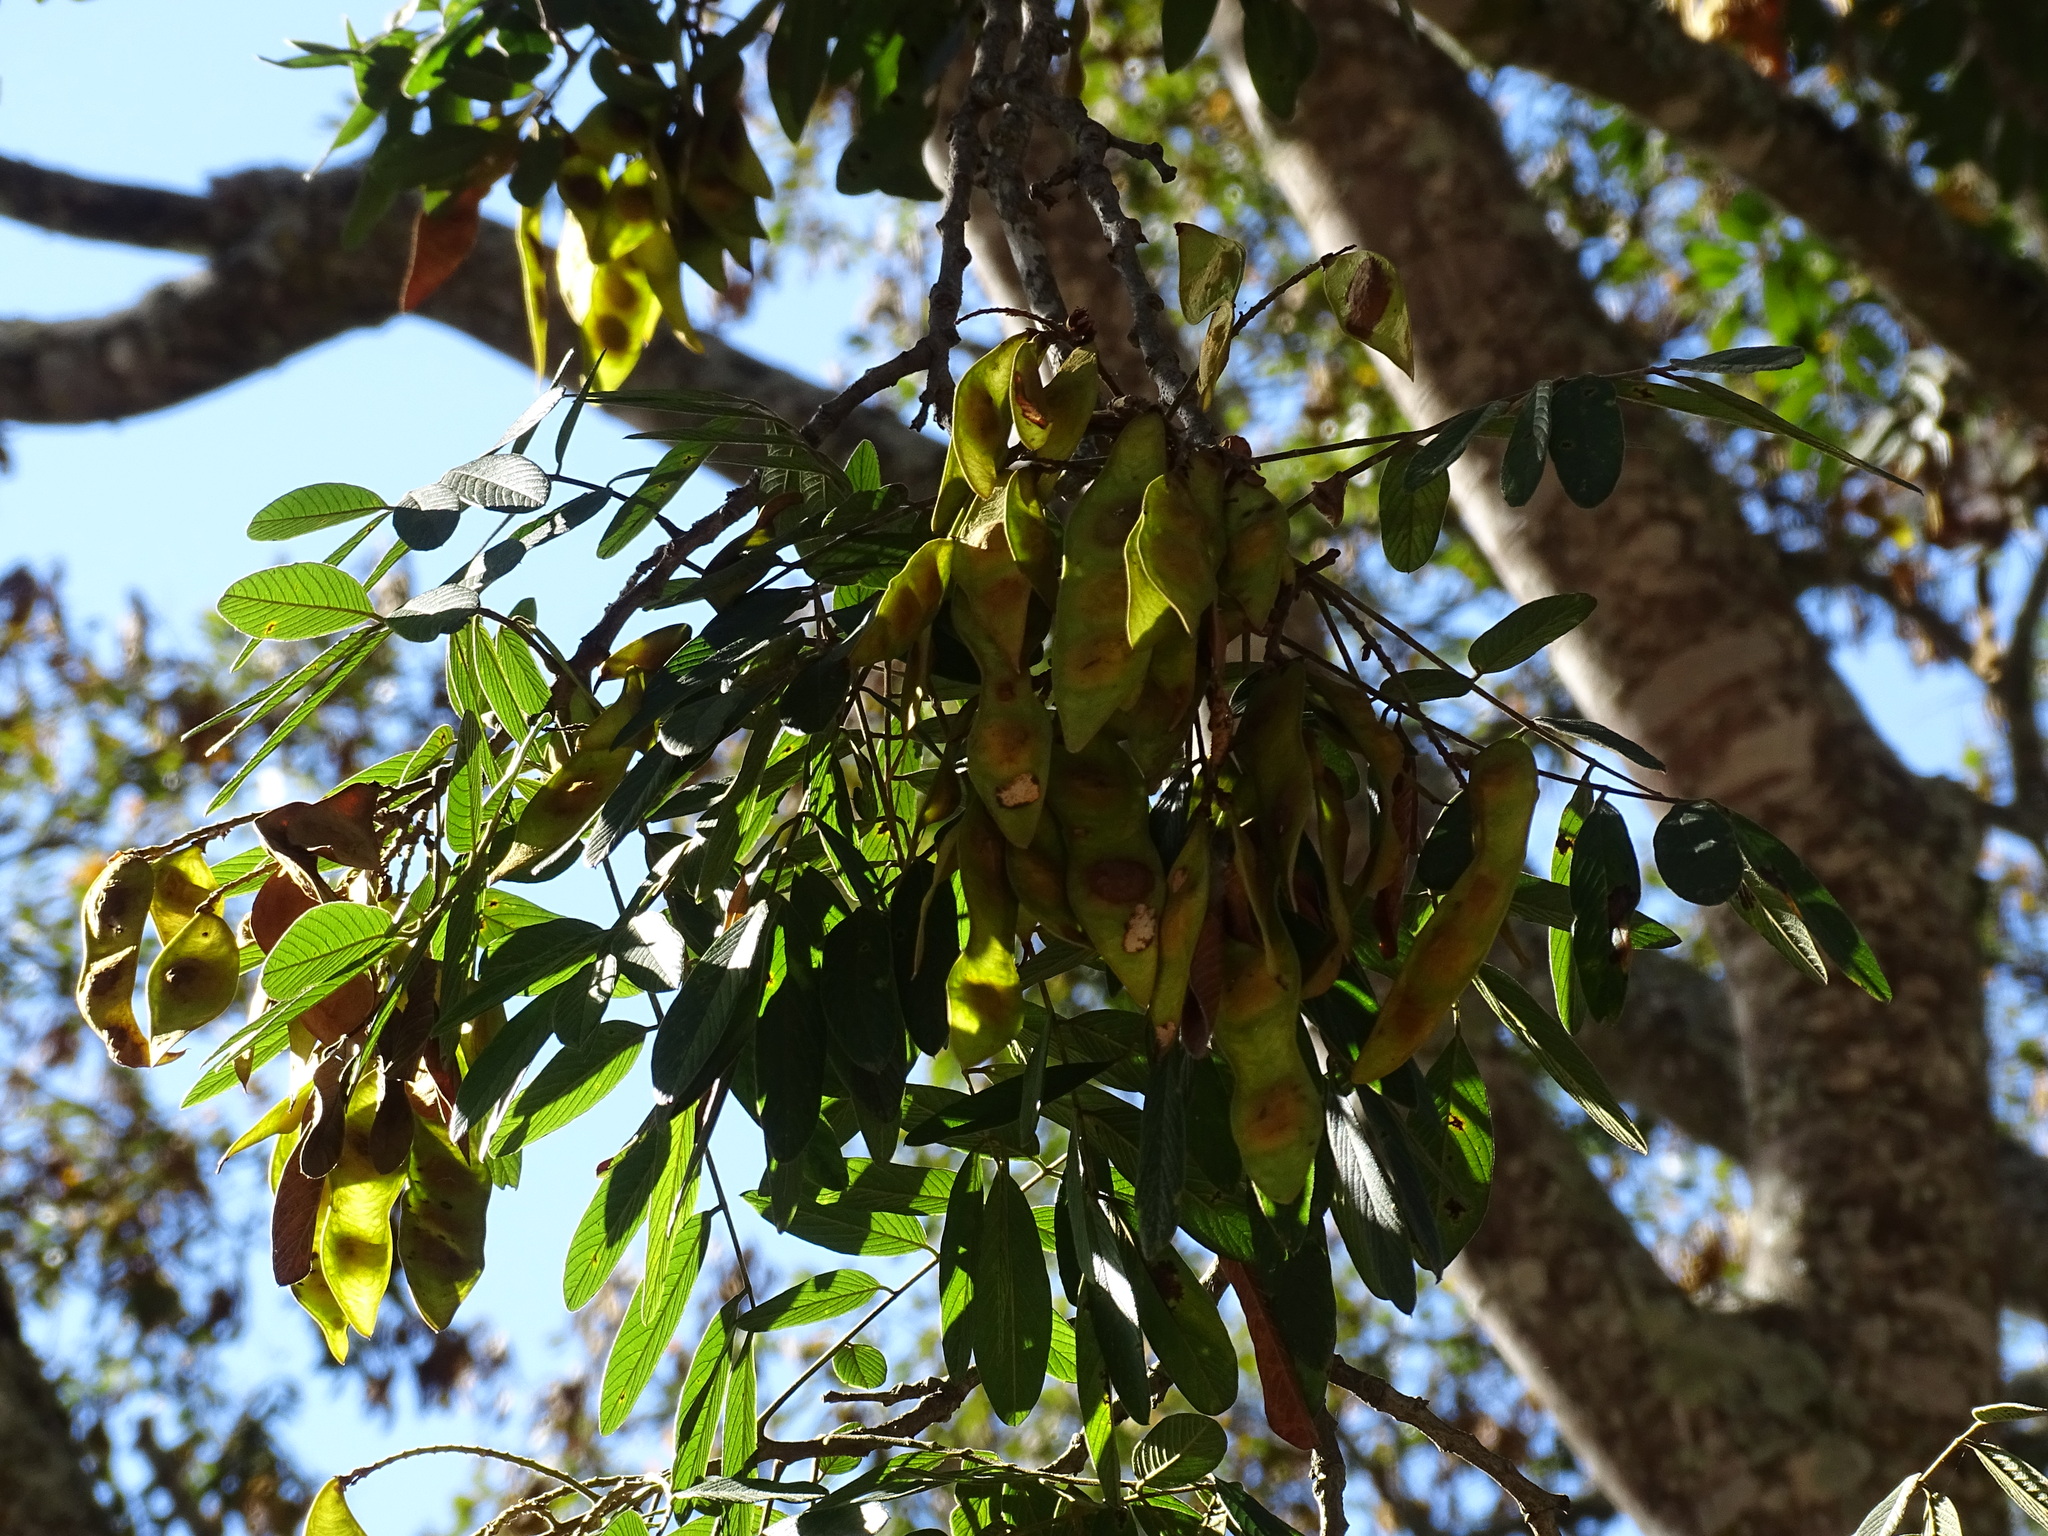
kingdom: Plantae
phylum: Tracheophyta
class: Magnoliopsida
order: Fabales
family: Fabaceae
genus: Lonchocarpus
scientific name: Lonchocarpus rugosus
